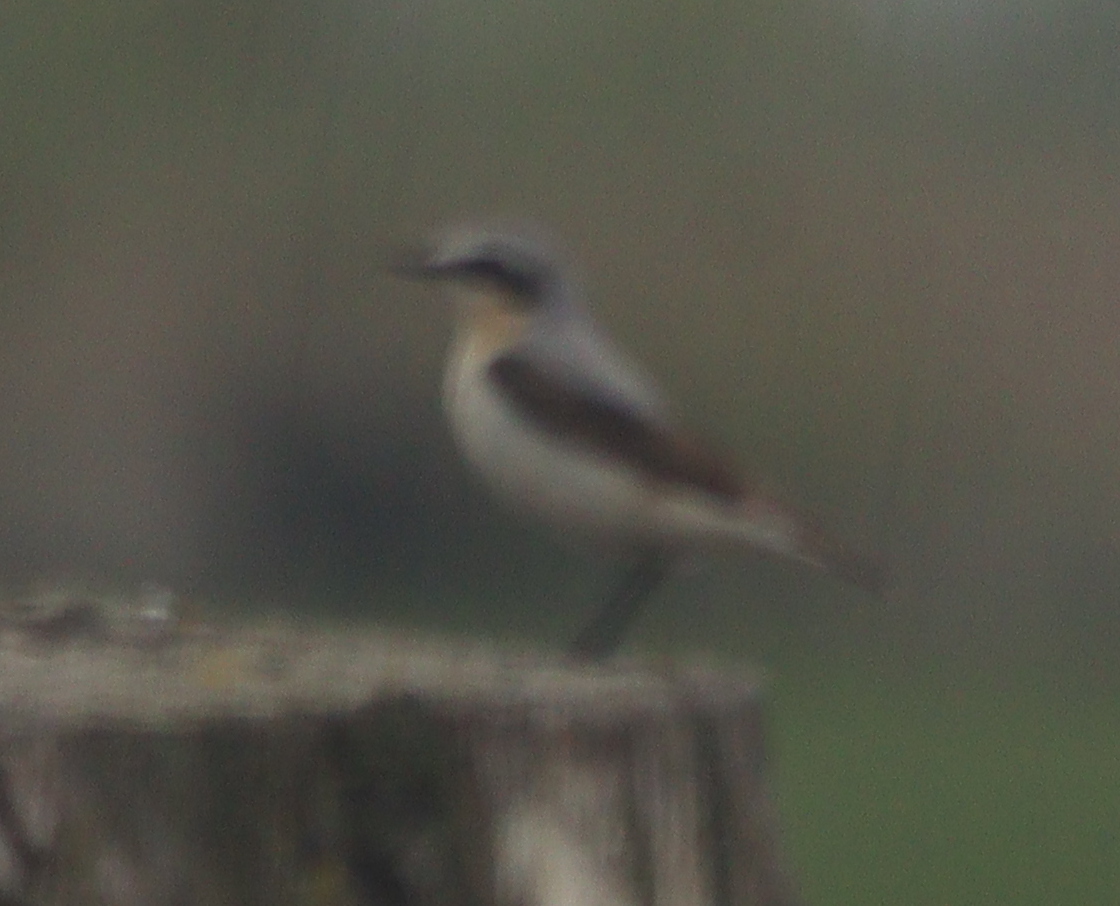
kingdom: Animalia
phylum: Chordata
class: Aves
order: Passeriformes
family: Muscicapidae
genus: Oenanthe
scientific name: Oenanthe oenanthe
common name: Northern wheatear
